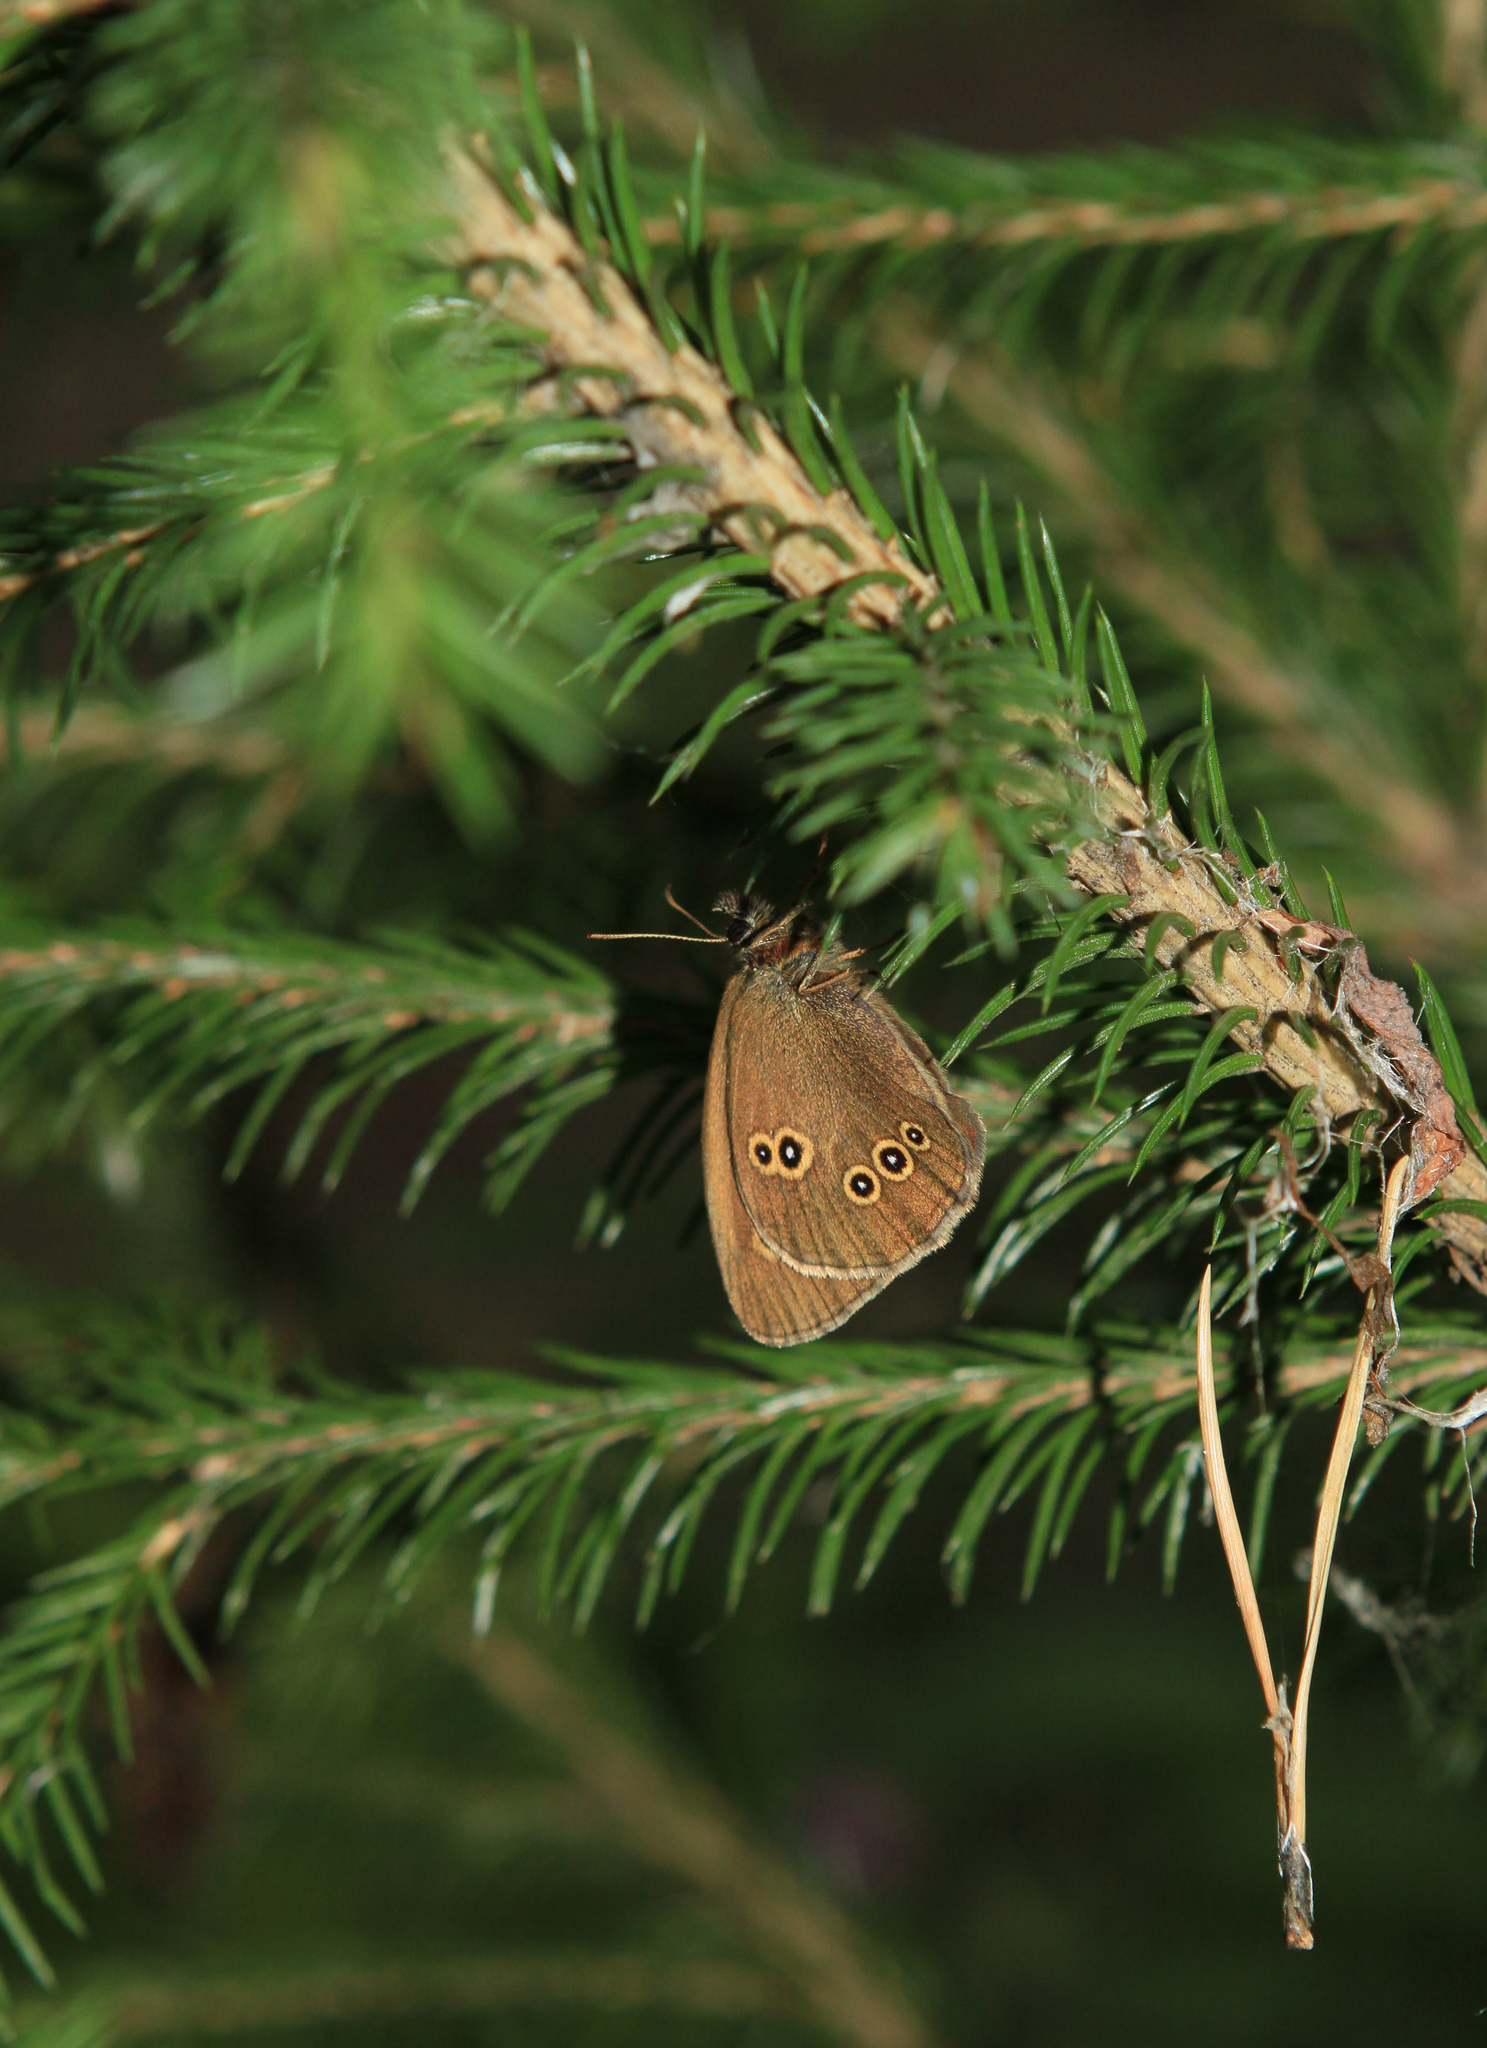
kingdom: Animalia
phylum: Arthropoda
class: Insecta
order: Lepidoptera
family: Nymphalidae
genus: Aphantopus
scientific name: Aphantopus hyperantus
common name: Ringlet
